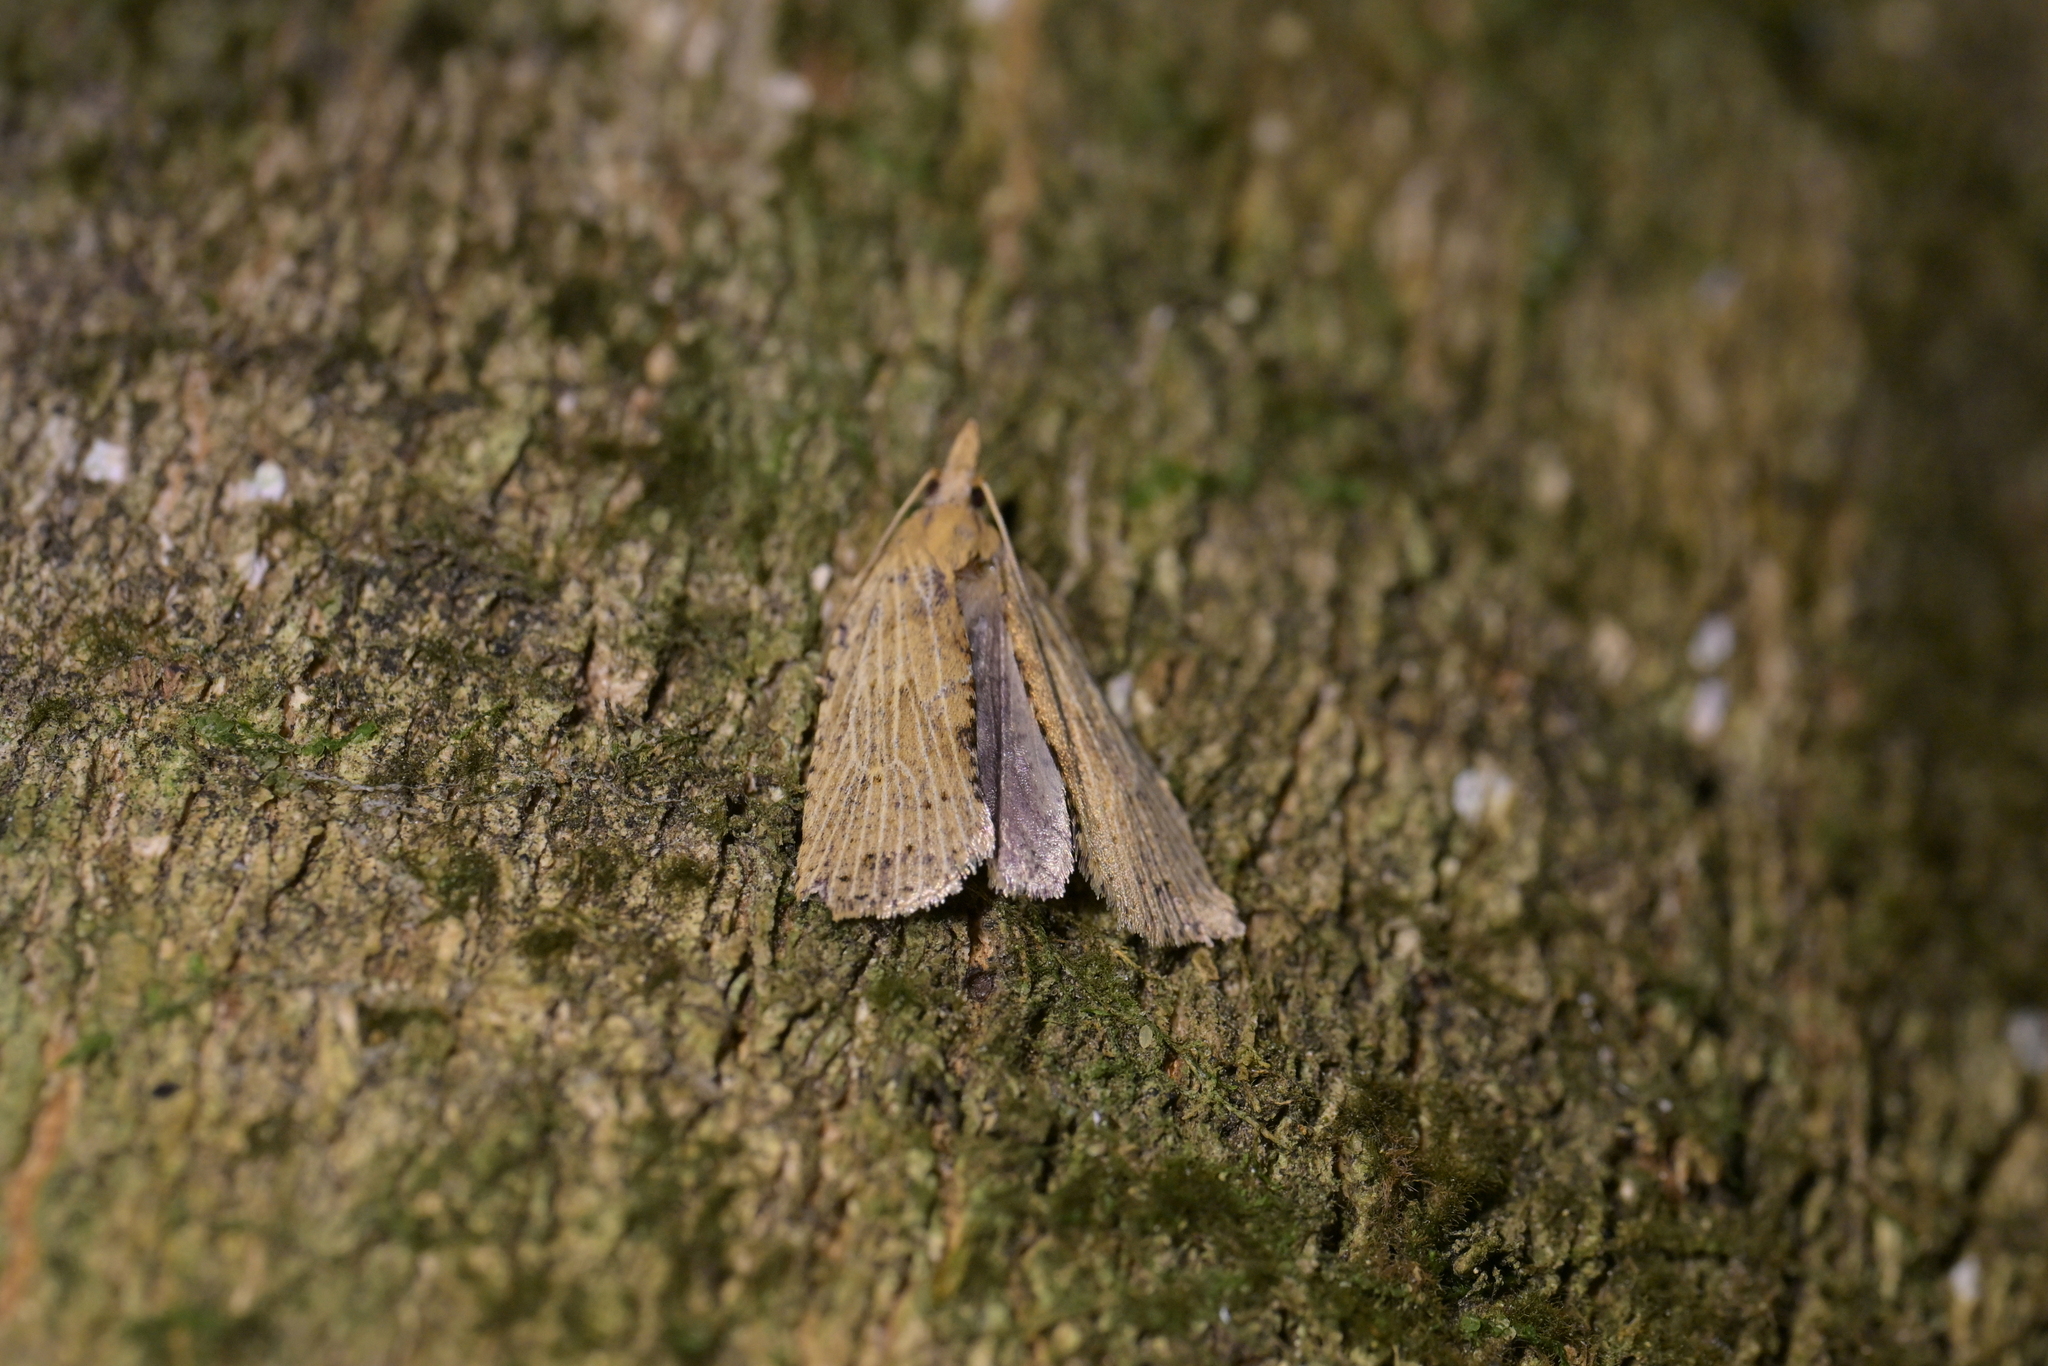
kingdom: Animalia
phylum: Arthropoda
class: Insecta
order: Lepidoptera
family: Tortricidae
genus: Planotortrix
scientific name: Planotortrix notophaea
